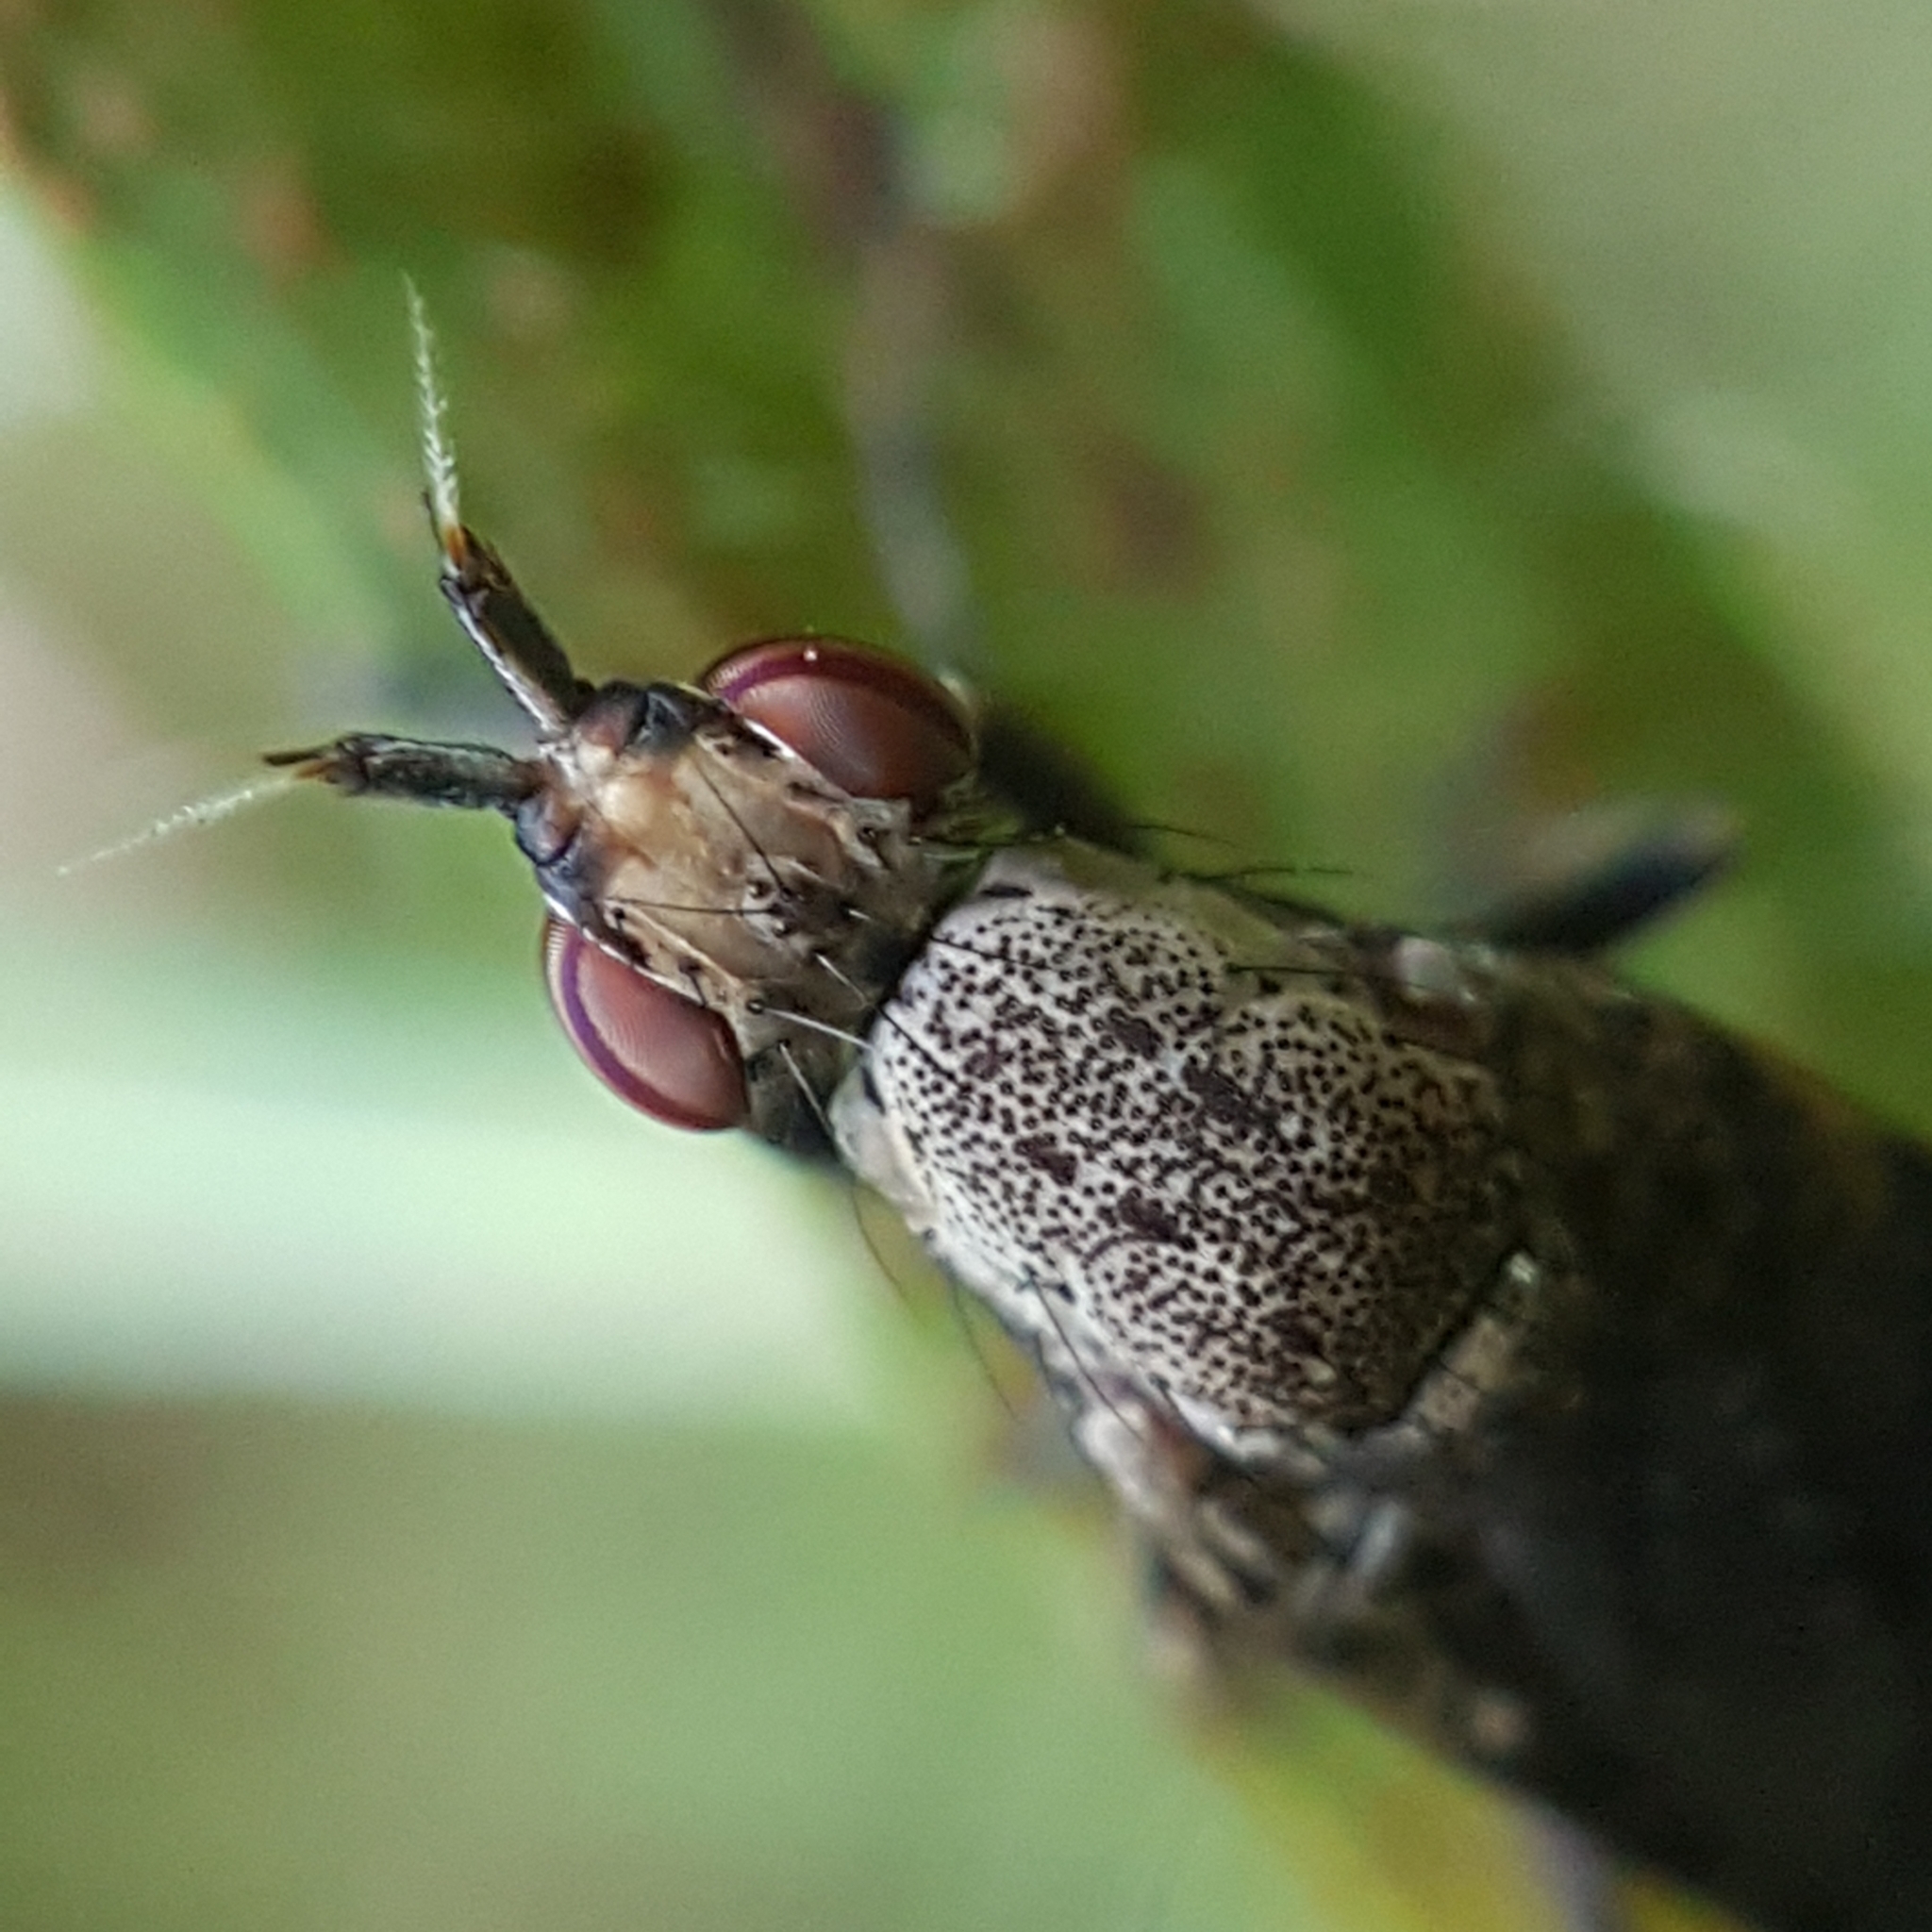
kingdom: Animalia
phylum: Arthropoda
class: Insecta
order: Diptera
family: Sciomyzidae
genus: Euthycera
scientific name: Euthycera cribrata
